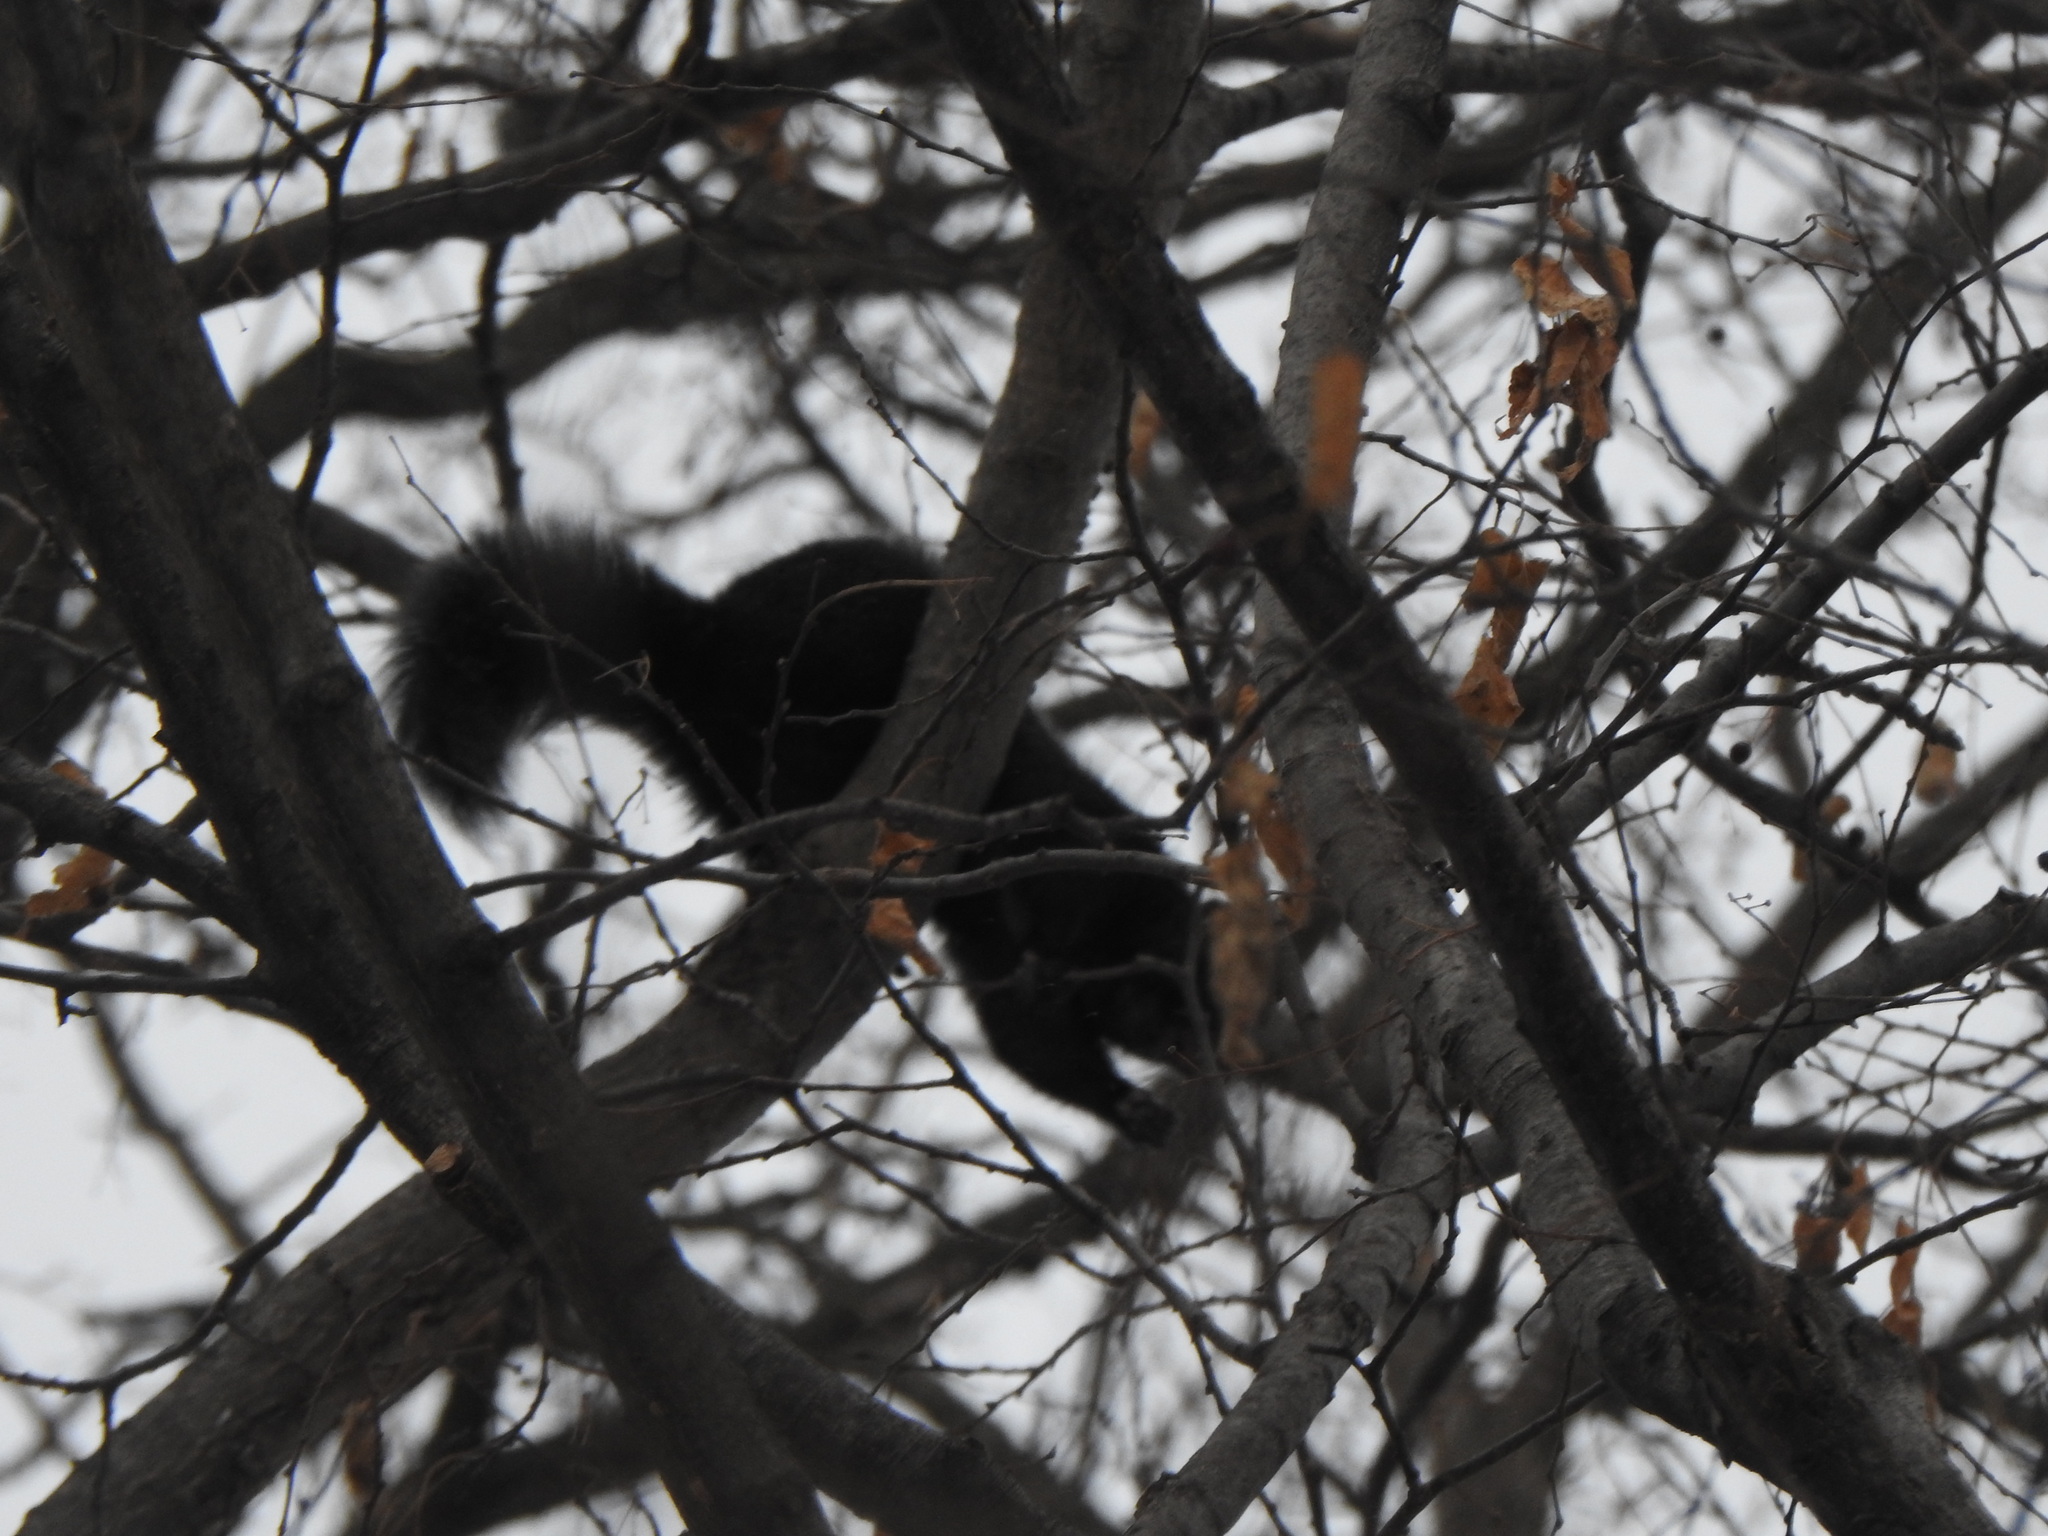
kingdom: Animalia
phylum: Chordata
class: Mammalia
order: Rodentia
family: Sciuridae
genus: Sciurus
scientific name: Sciurus carolinensis
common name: Eastern gray squirrel
